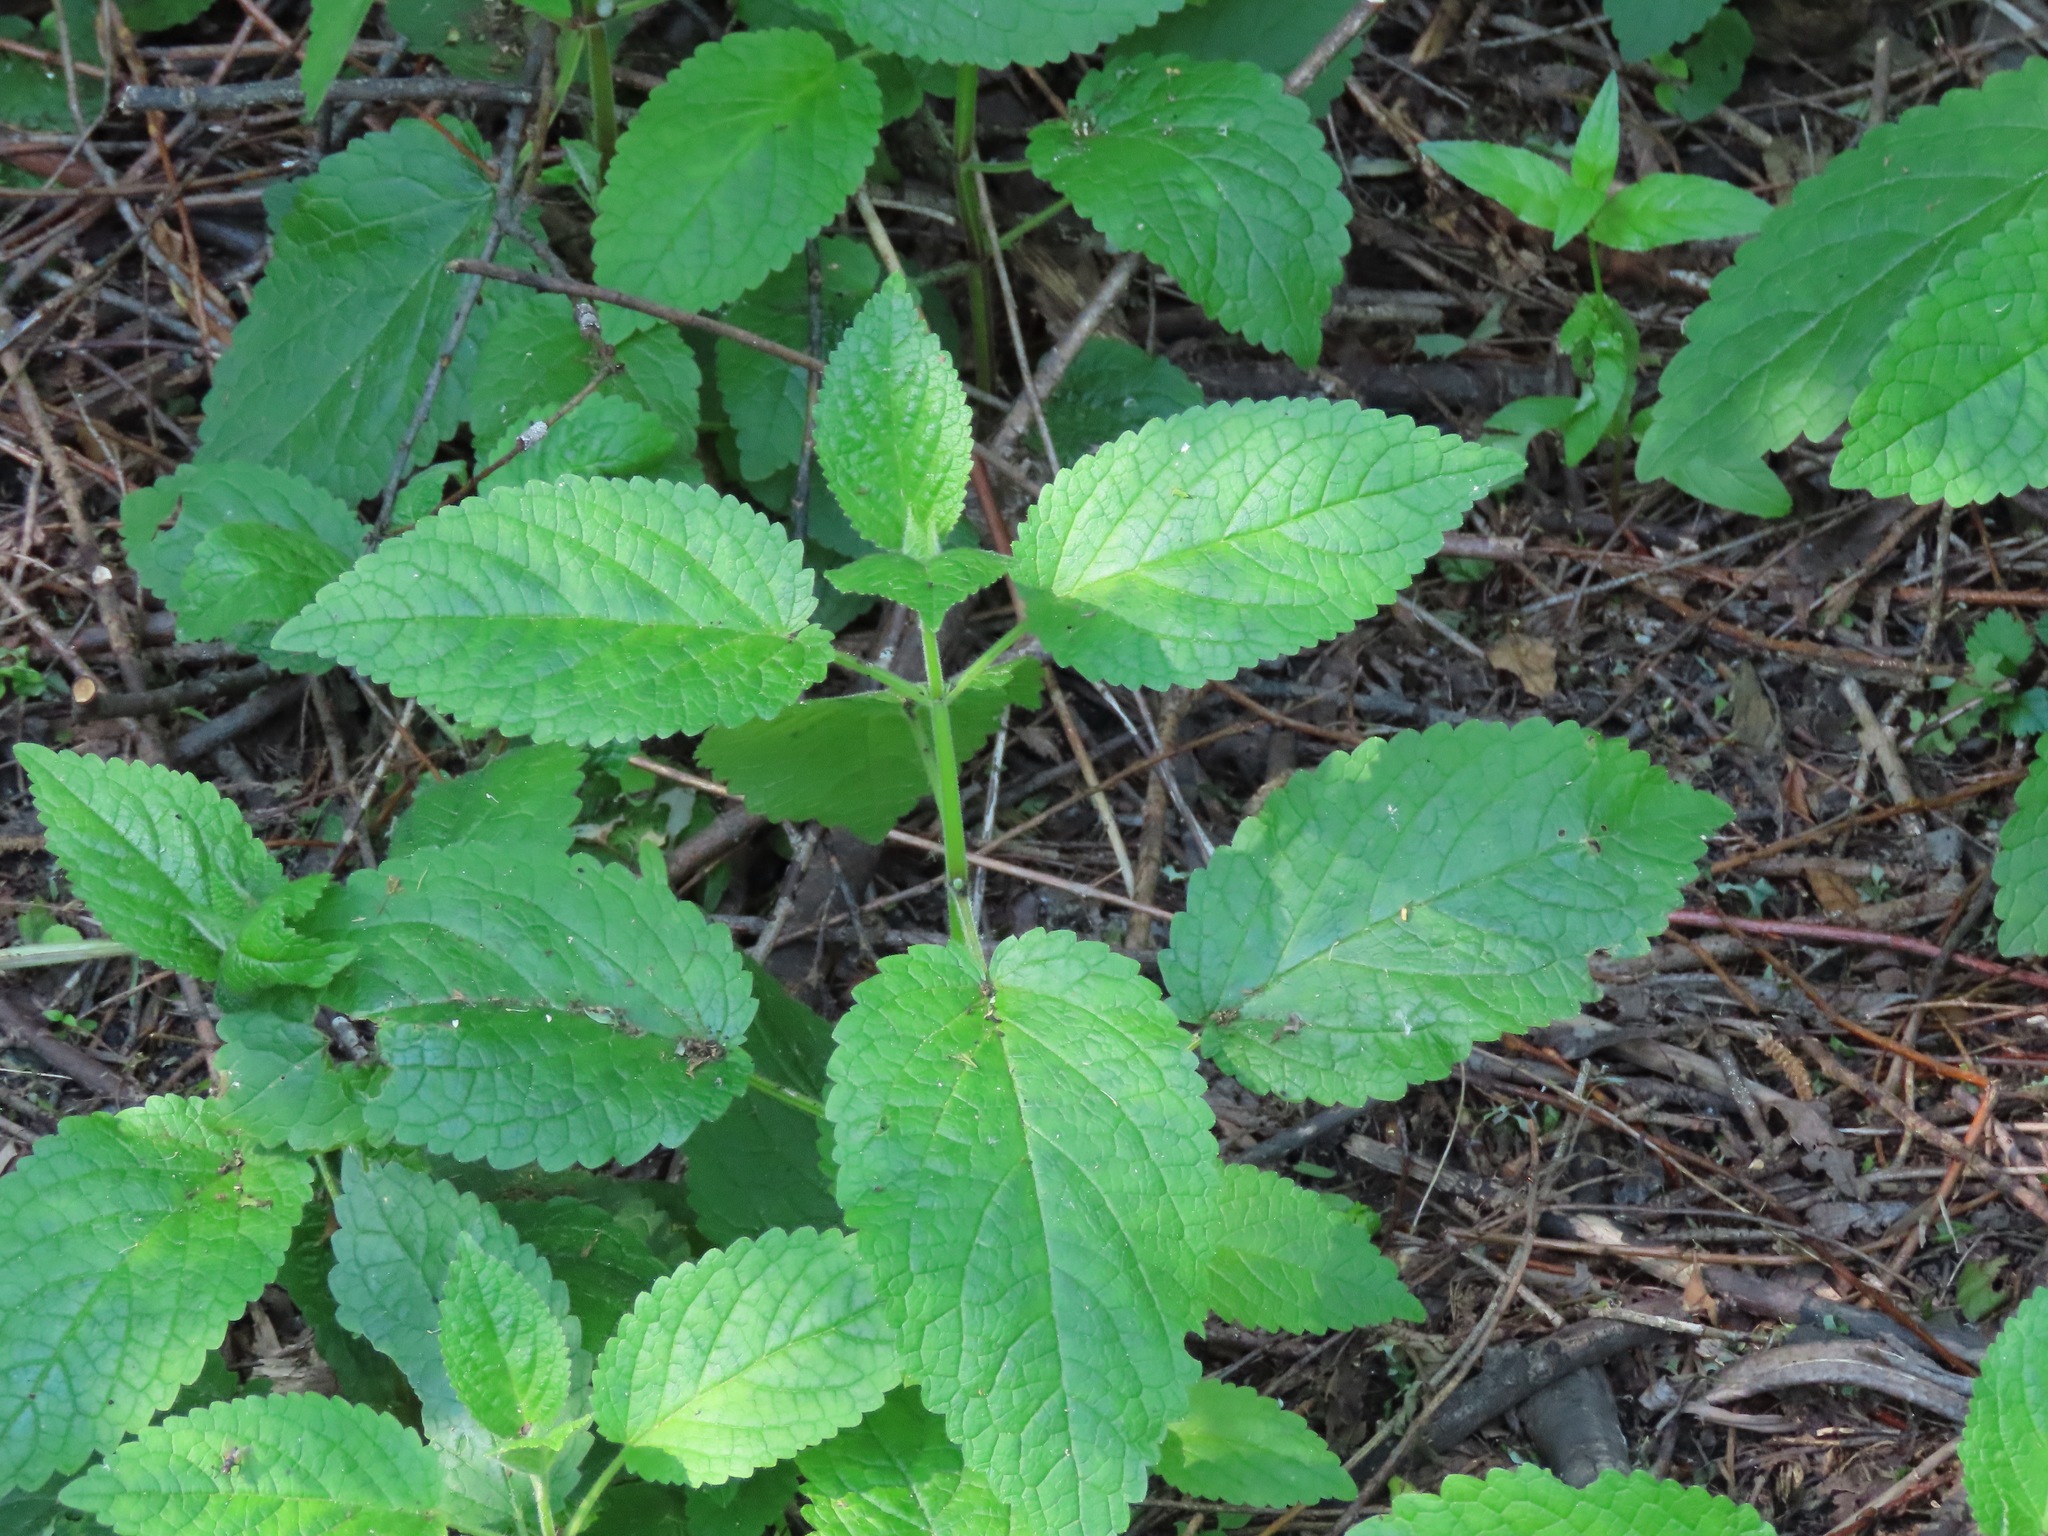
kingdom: Plantae
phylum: Tracheophyta
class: Magnoliopsida
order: Lamiales
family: Lamiaceae
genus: Stachys
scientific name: Stachys chamissonis
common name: Coastal hedge-nettle
